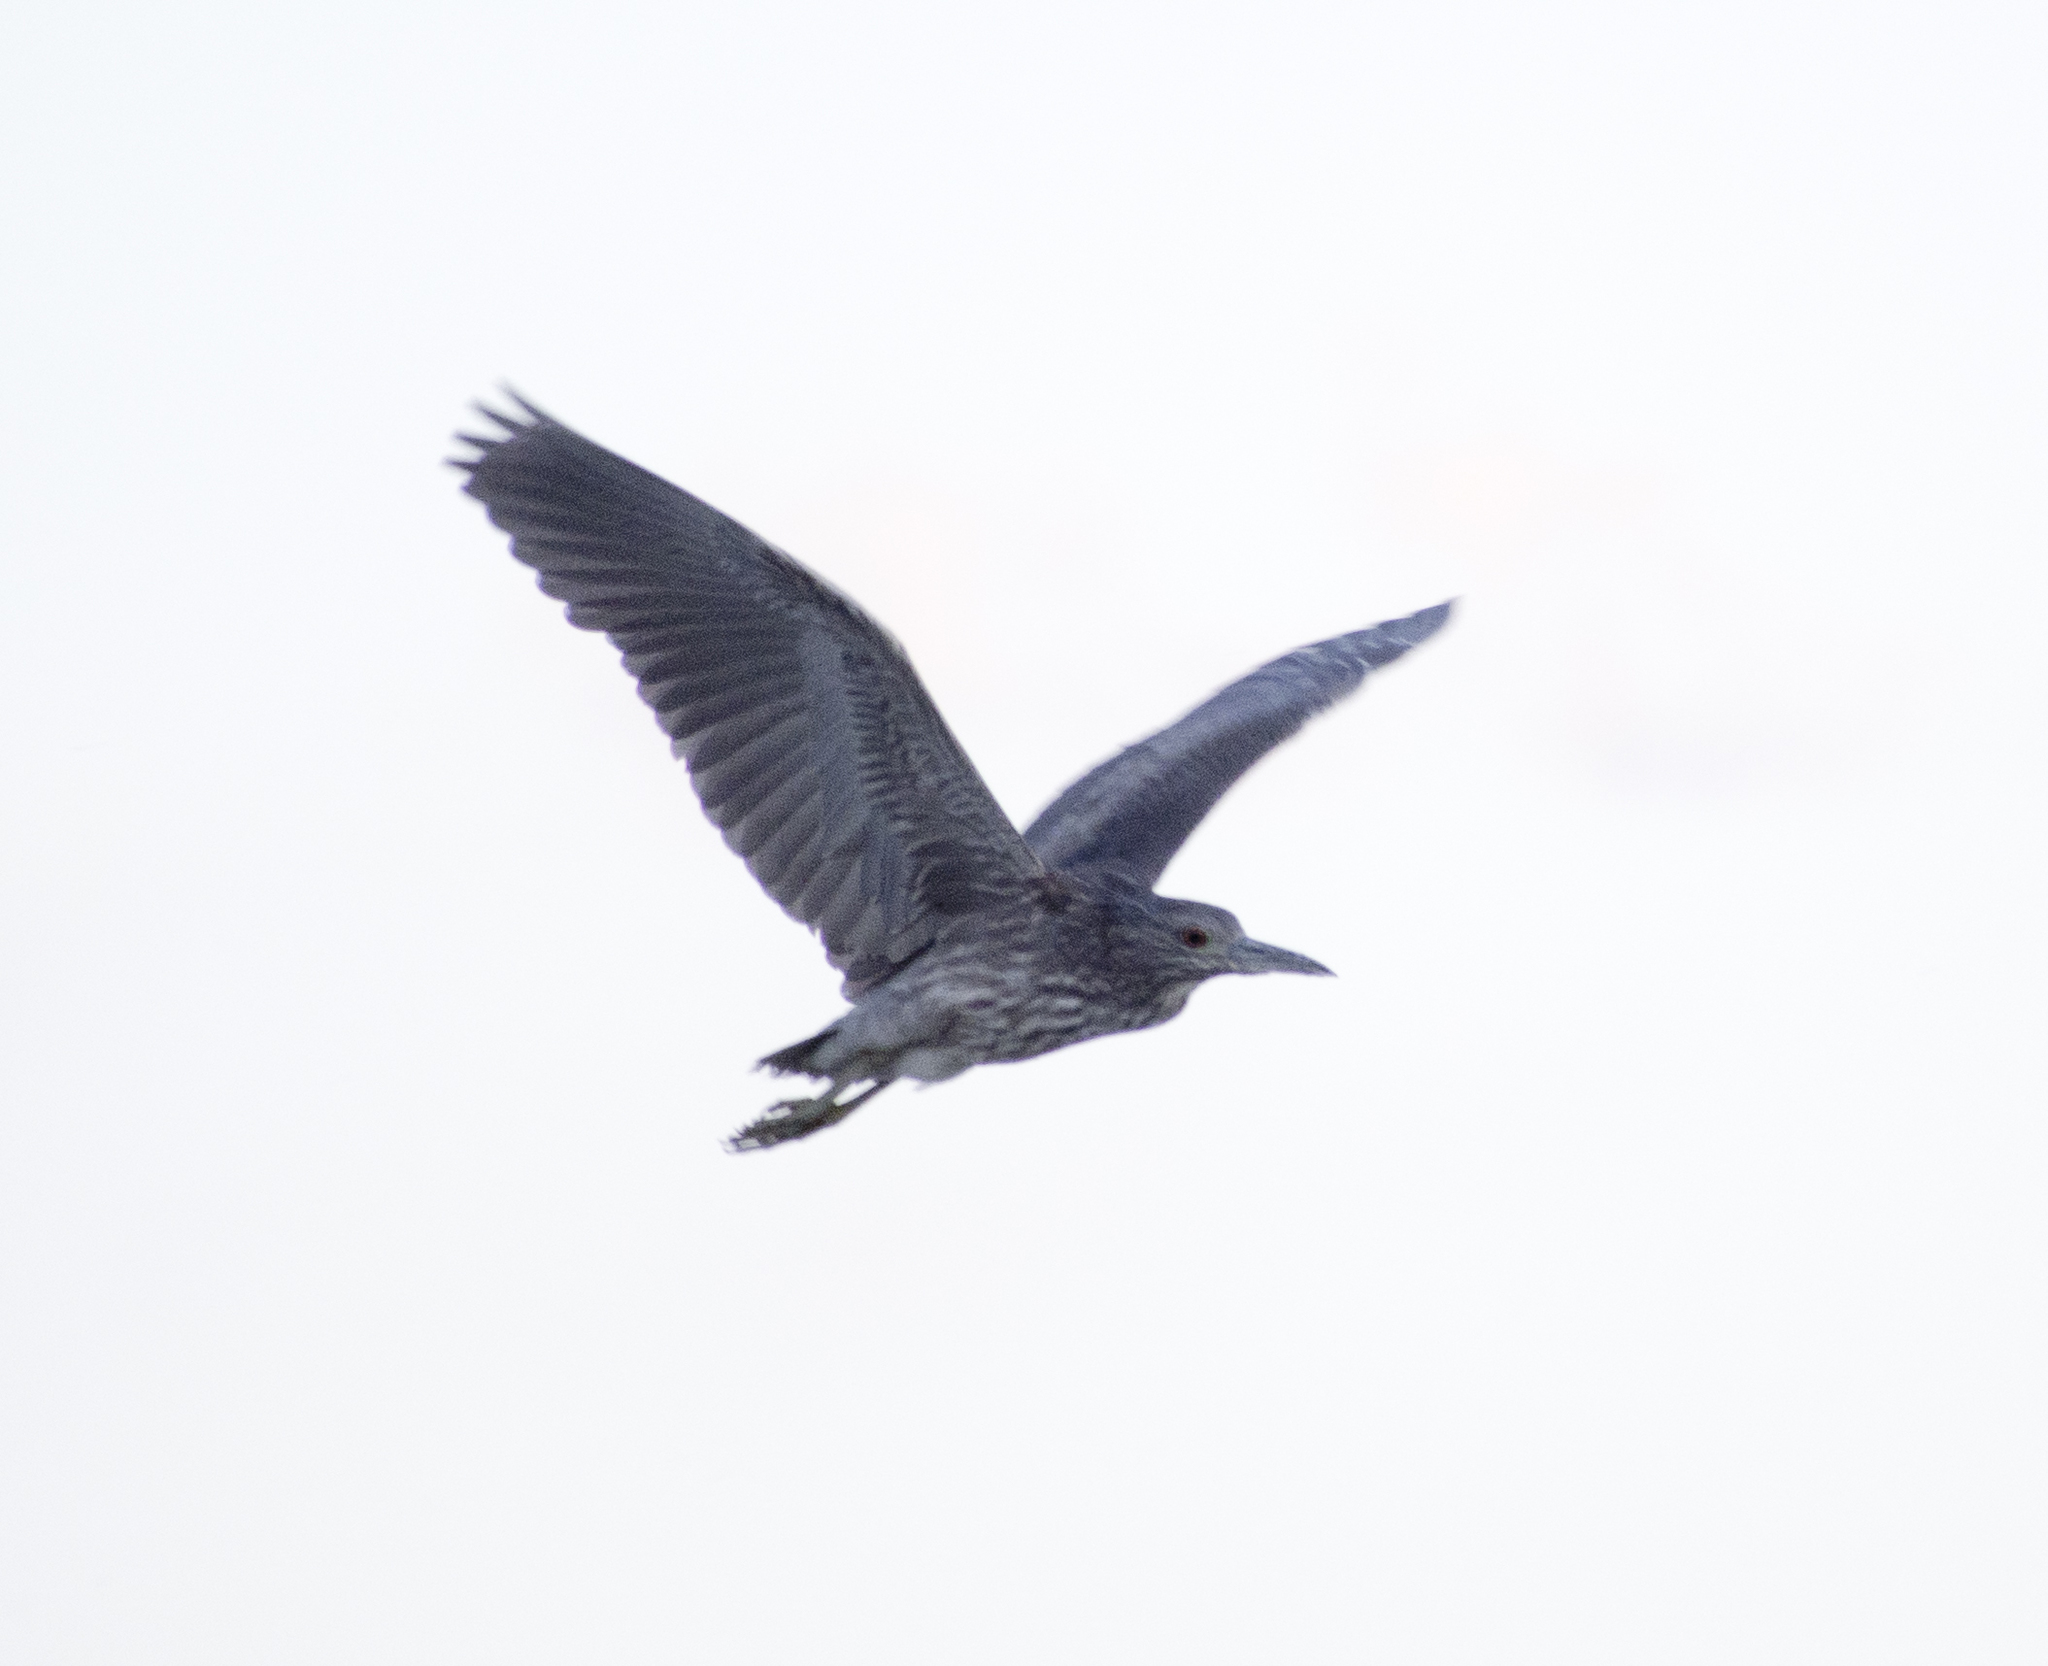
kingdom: Animalia
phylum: Chordata
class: Aves
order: Pelecaniformes
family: Ardeidae
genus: Nycticorax
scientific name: Nycticorax nycticorax
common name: Black-crowned night heron
